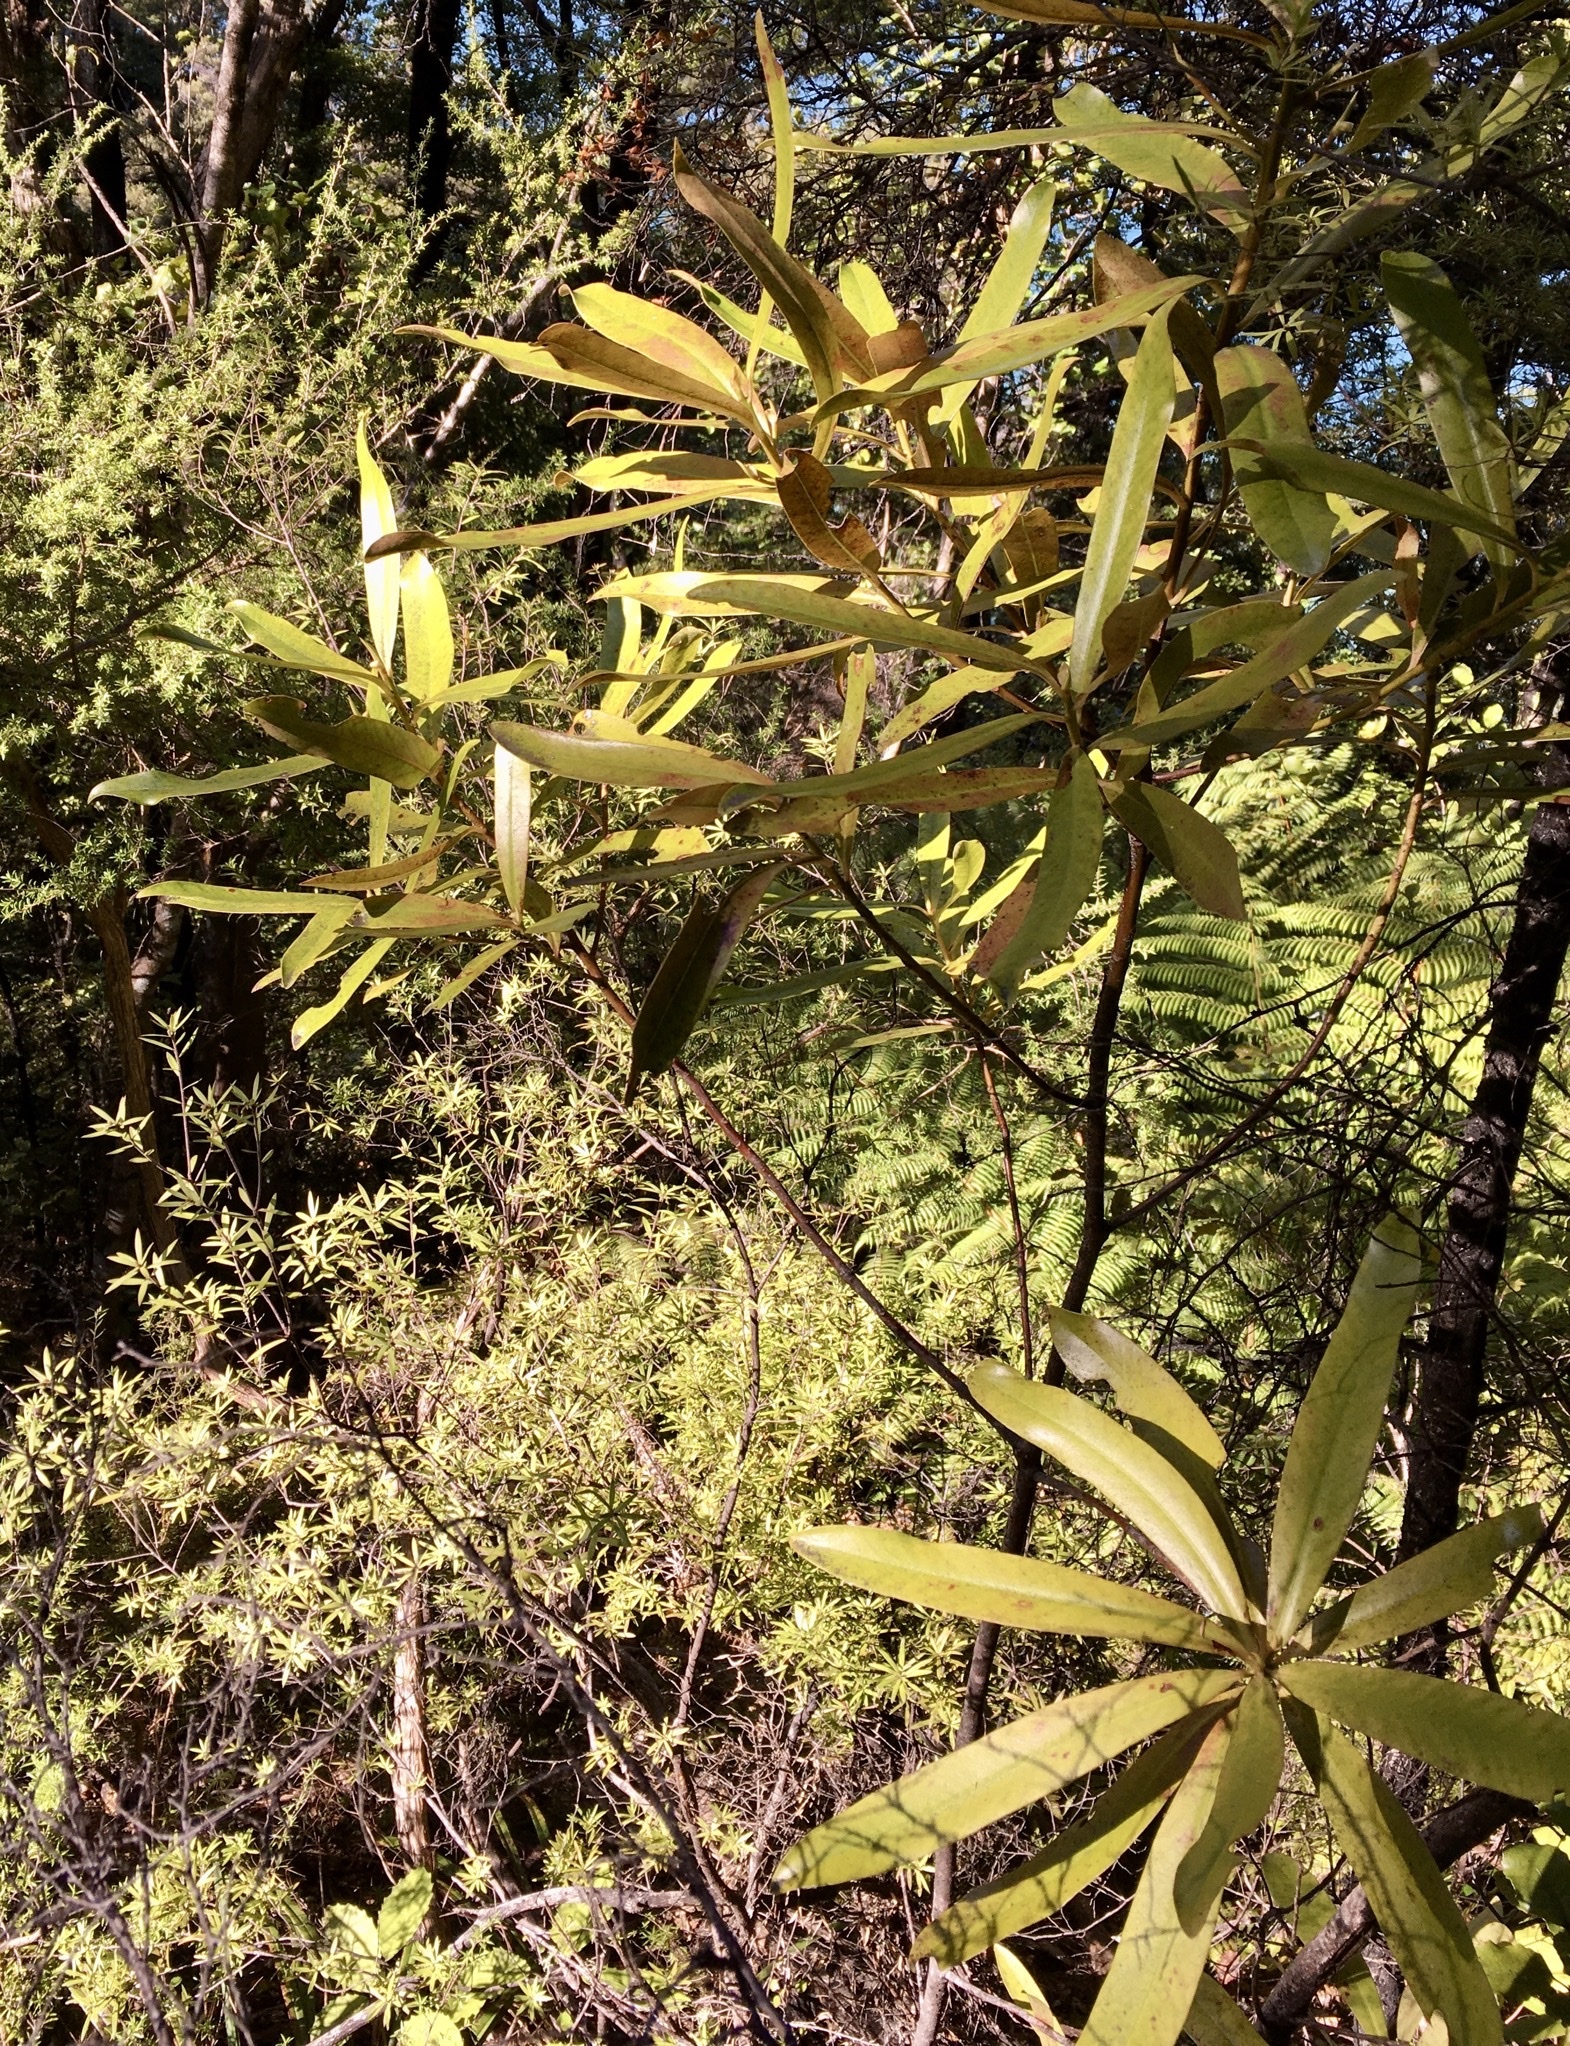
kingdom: Plantae
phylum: Tracheophyta
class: Magnoliopsida
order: Ericales
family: Primulaceae
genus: Myrsine
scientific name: Myrsine salicina
